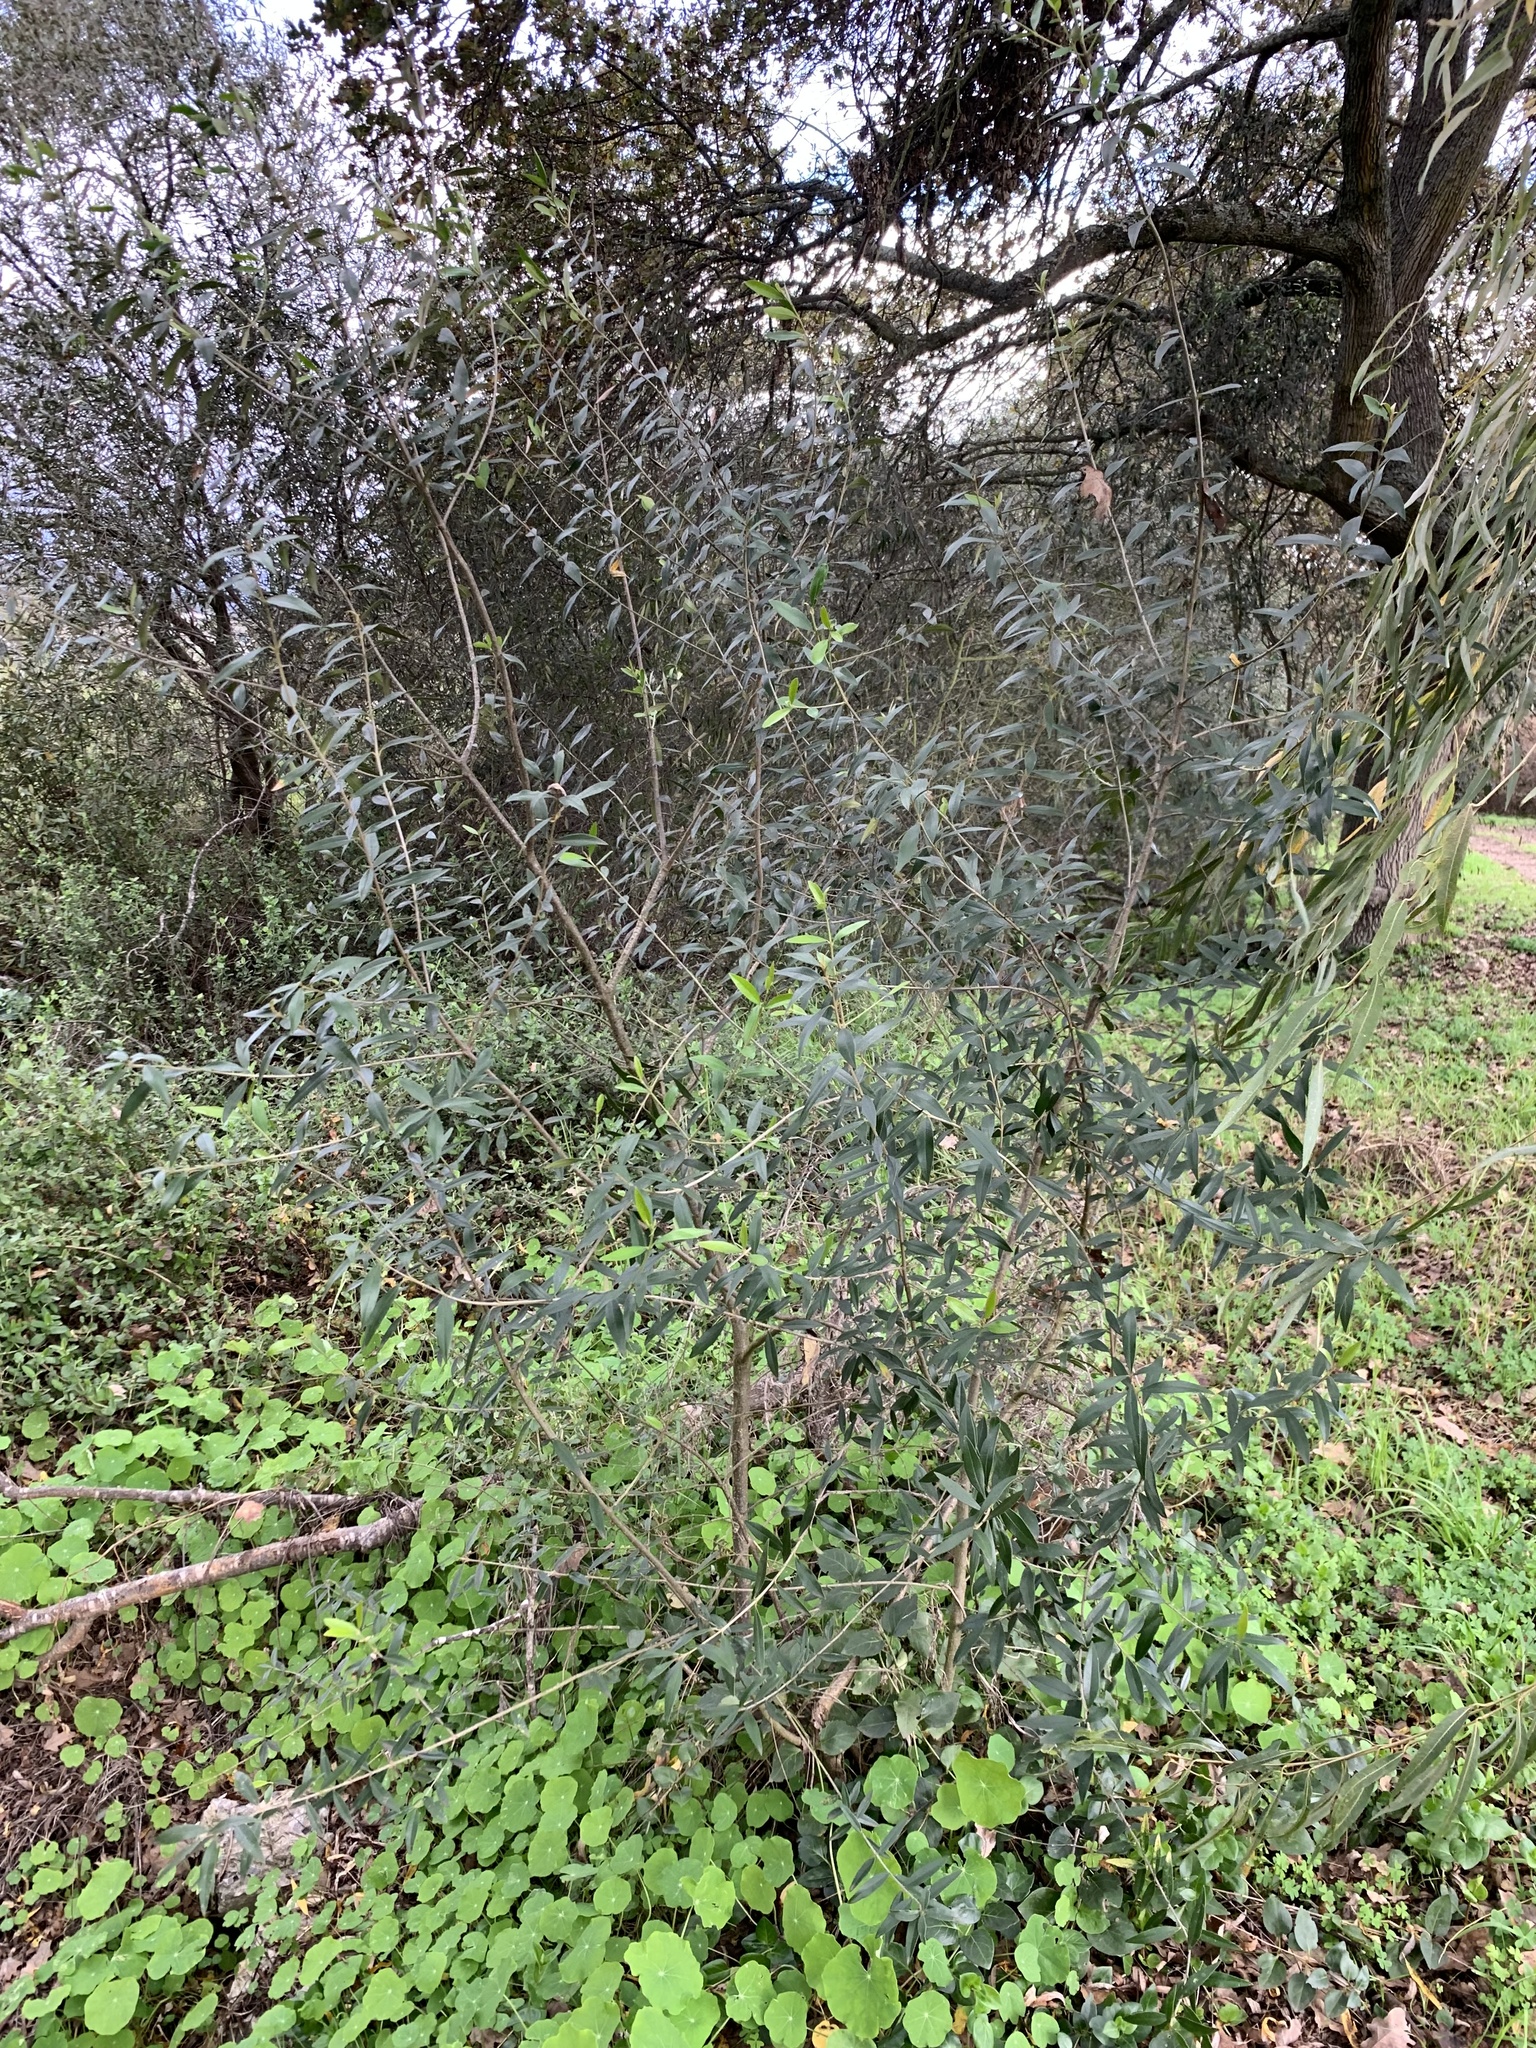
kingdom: Plantae
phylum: Tracheophyta
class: Magnoliopsida
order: Lamiales
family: Oleaceae
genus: Olea
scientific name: Olea europaea
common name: Olive
